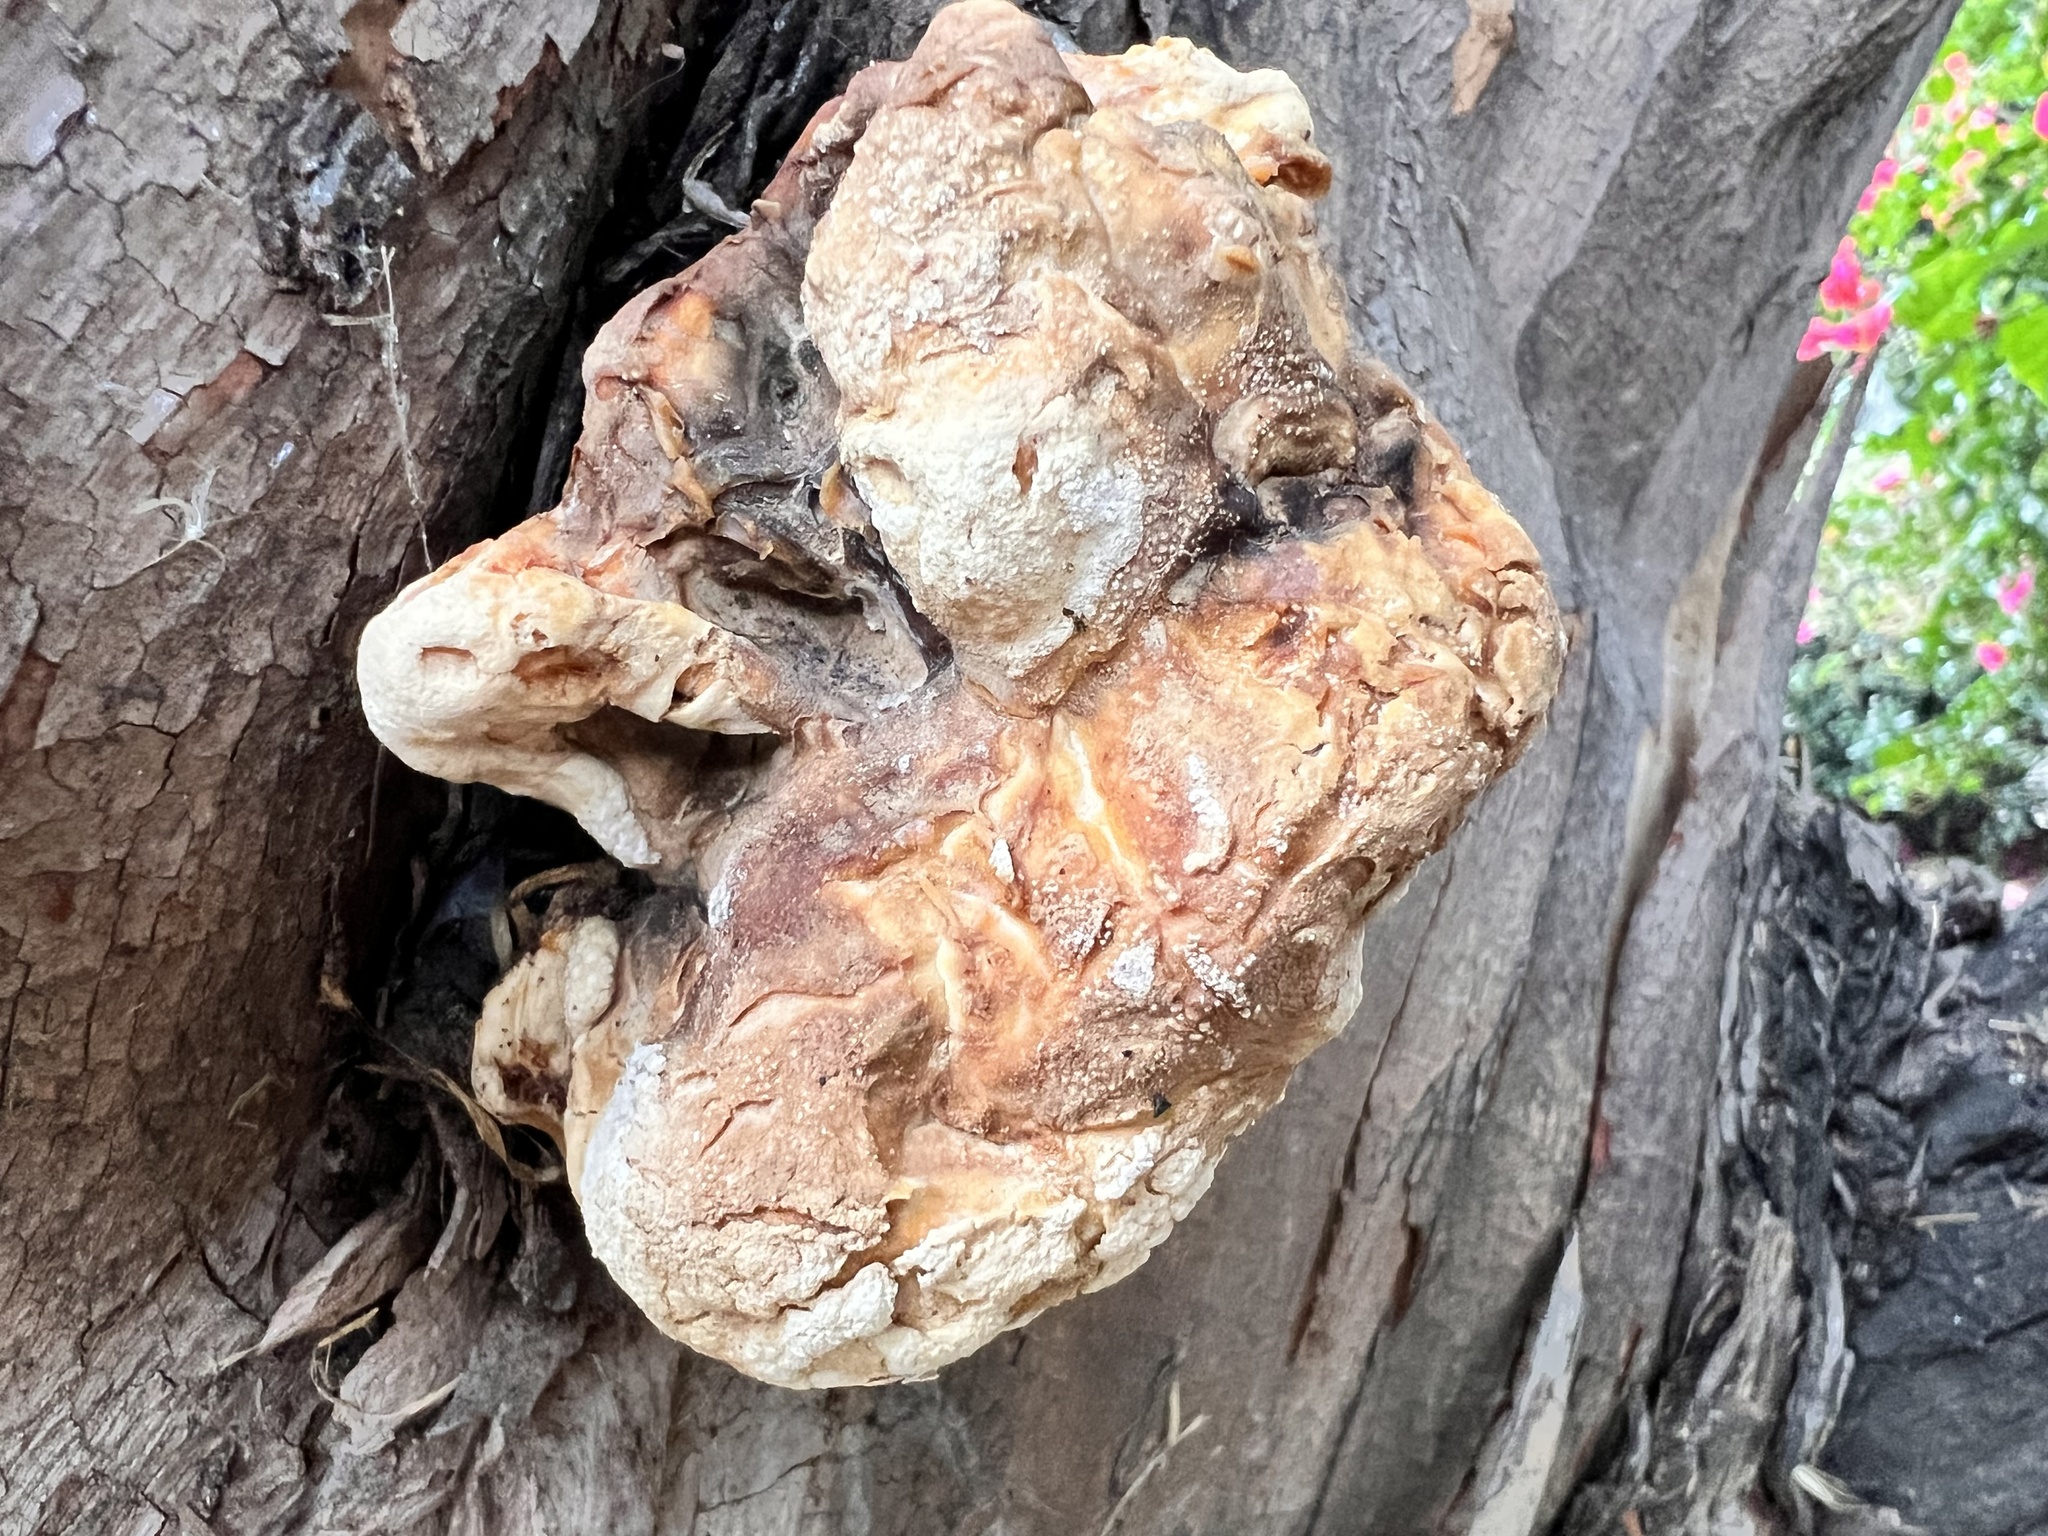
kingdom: Fungi
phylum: Basidiomycota
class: Agaricomycetes
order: Polyporales
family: Laetiporaceae
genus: Laetiporus
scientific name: Laetiporus gilbertsonii
